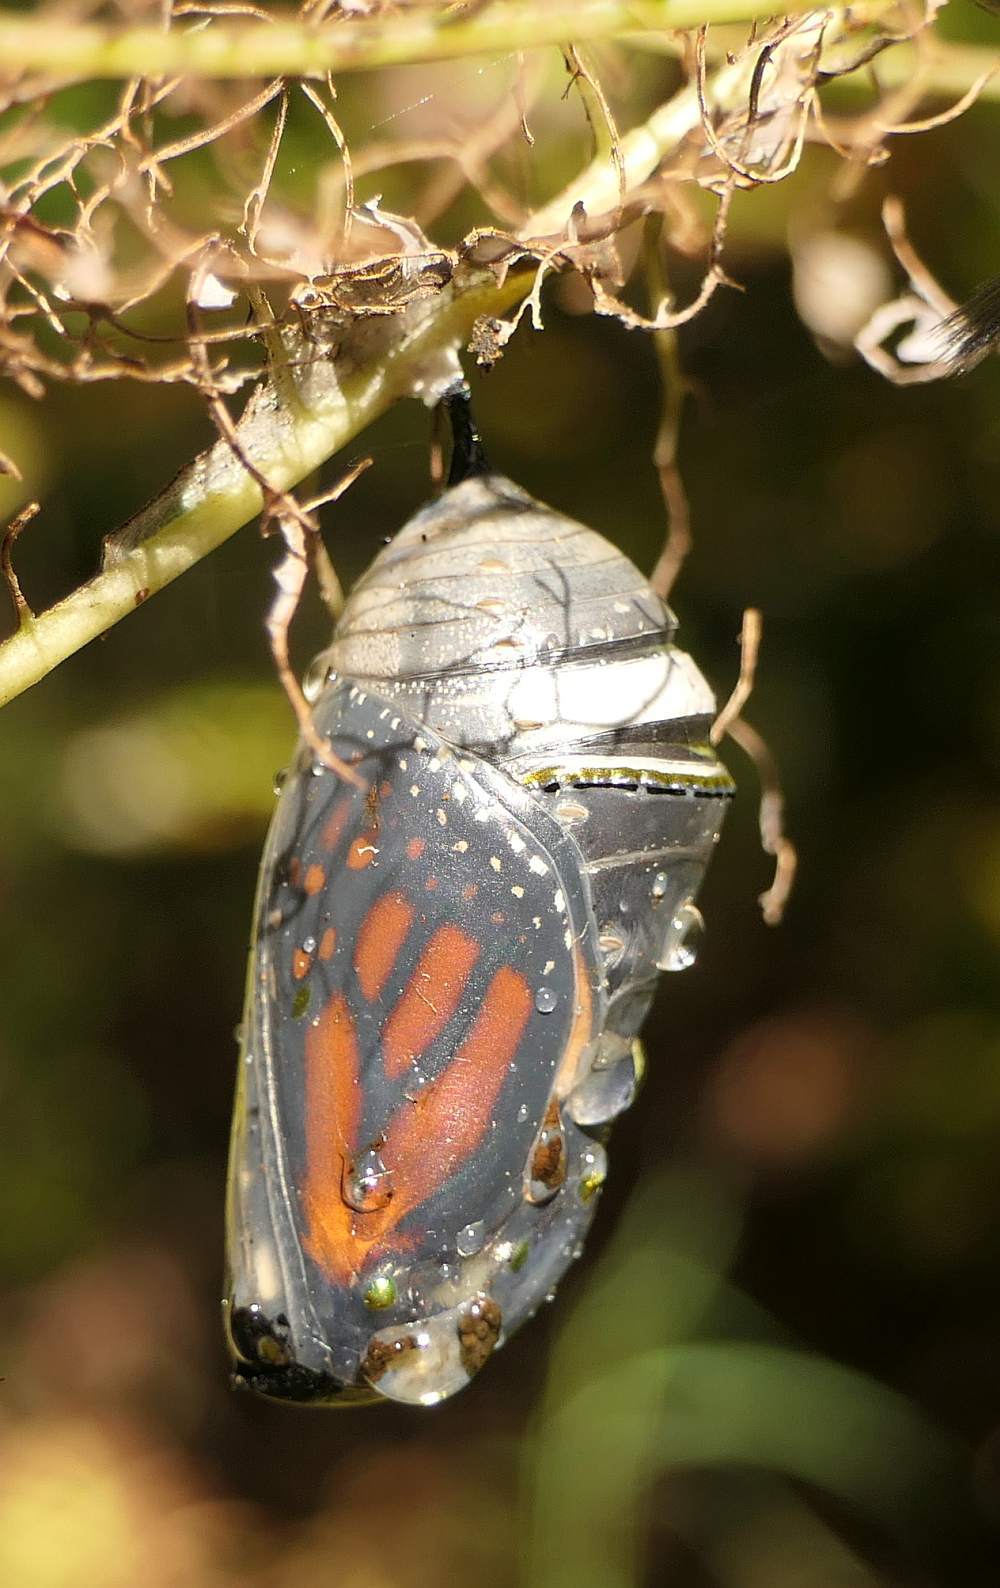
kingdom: Animalia
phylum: Arthropoda
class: Insecta
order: Lepidoptera
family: Nymphalidae
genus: Danaus
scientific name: Danaus plexippus
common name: Monarch
